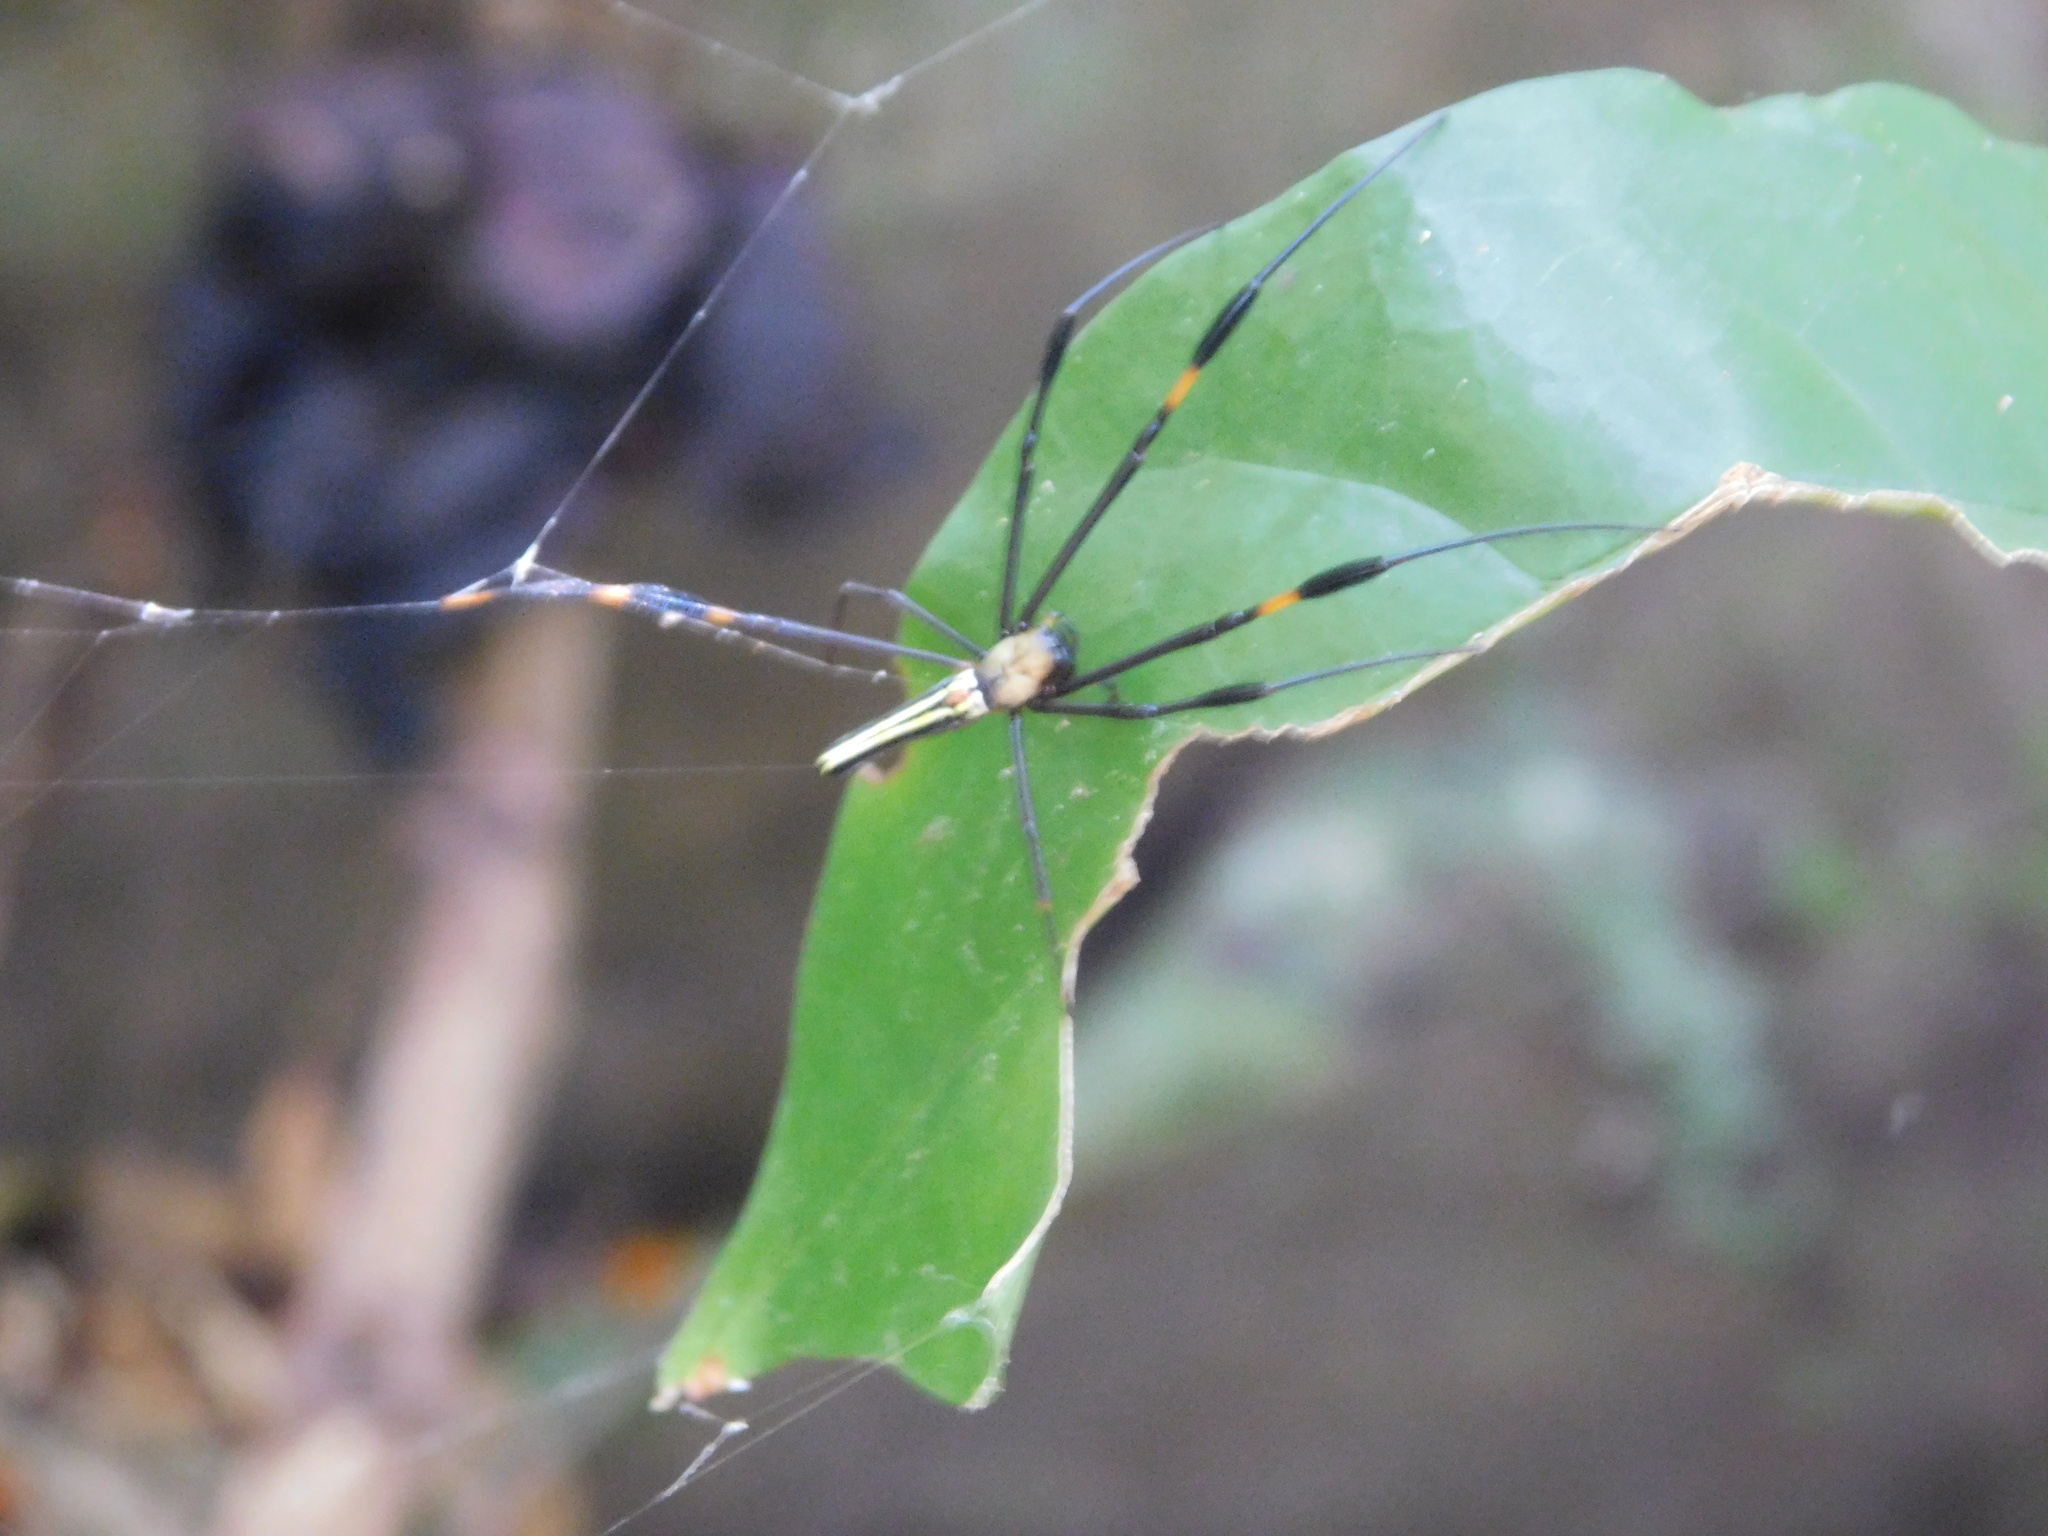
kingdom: Animalia
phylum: Arthropoda
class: Arachnida
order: Araneae
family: Araneidae
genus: Nephila
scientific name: Nephila pilipes
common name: Giant golden orb weaver
